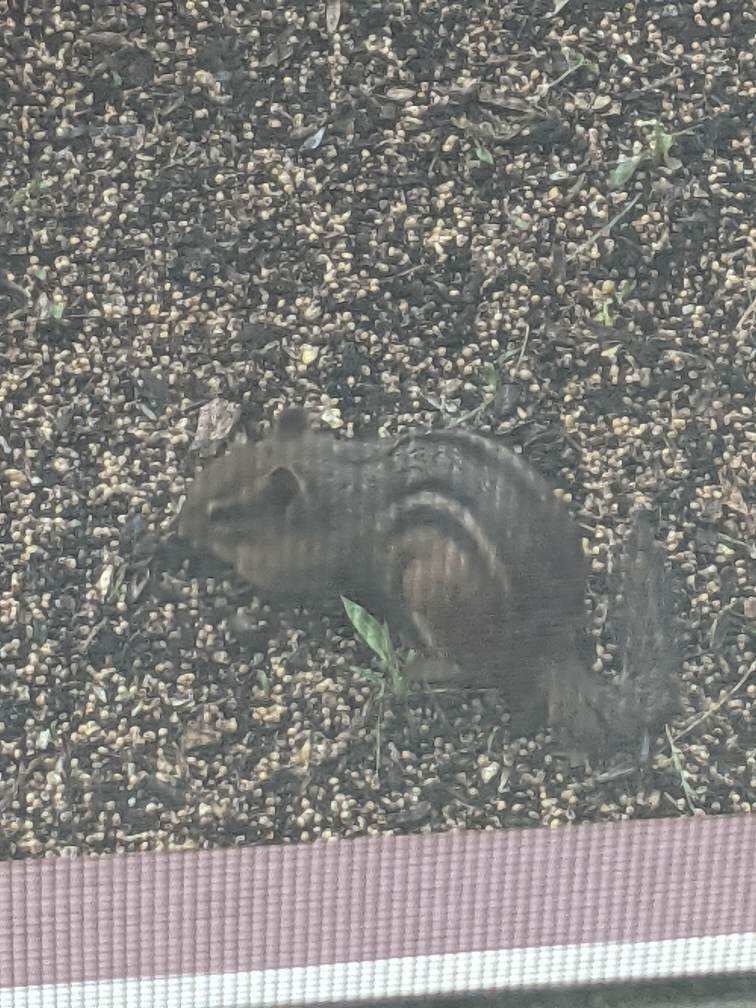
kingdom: Animalia
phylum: Chordata
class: Mammalia
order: Rodentia
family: Sciuridae
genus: Tamias
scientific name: Tamias striatus
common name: Eastern chipmunk
